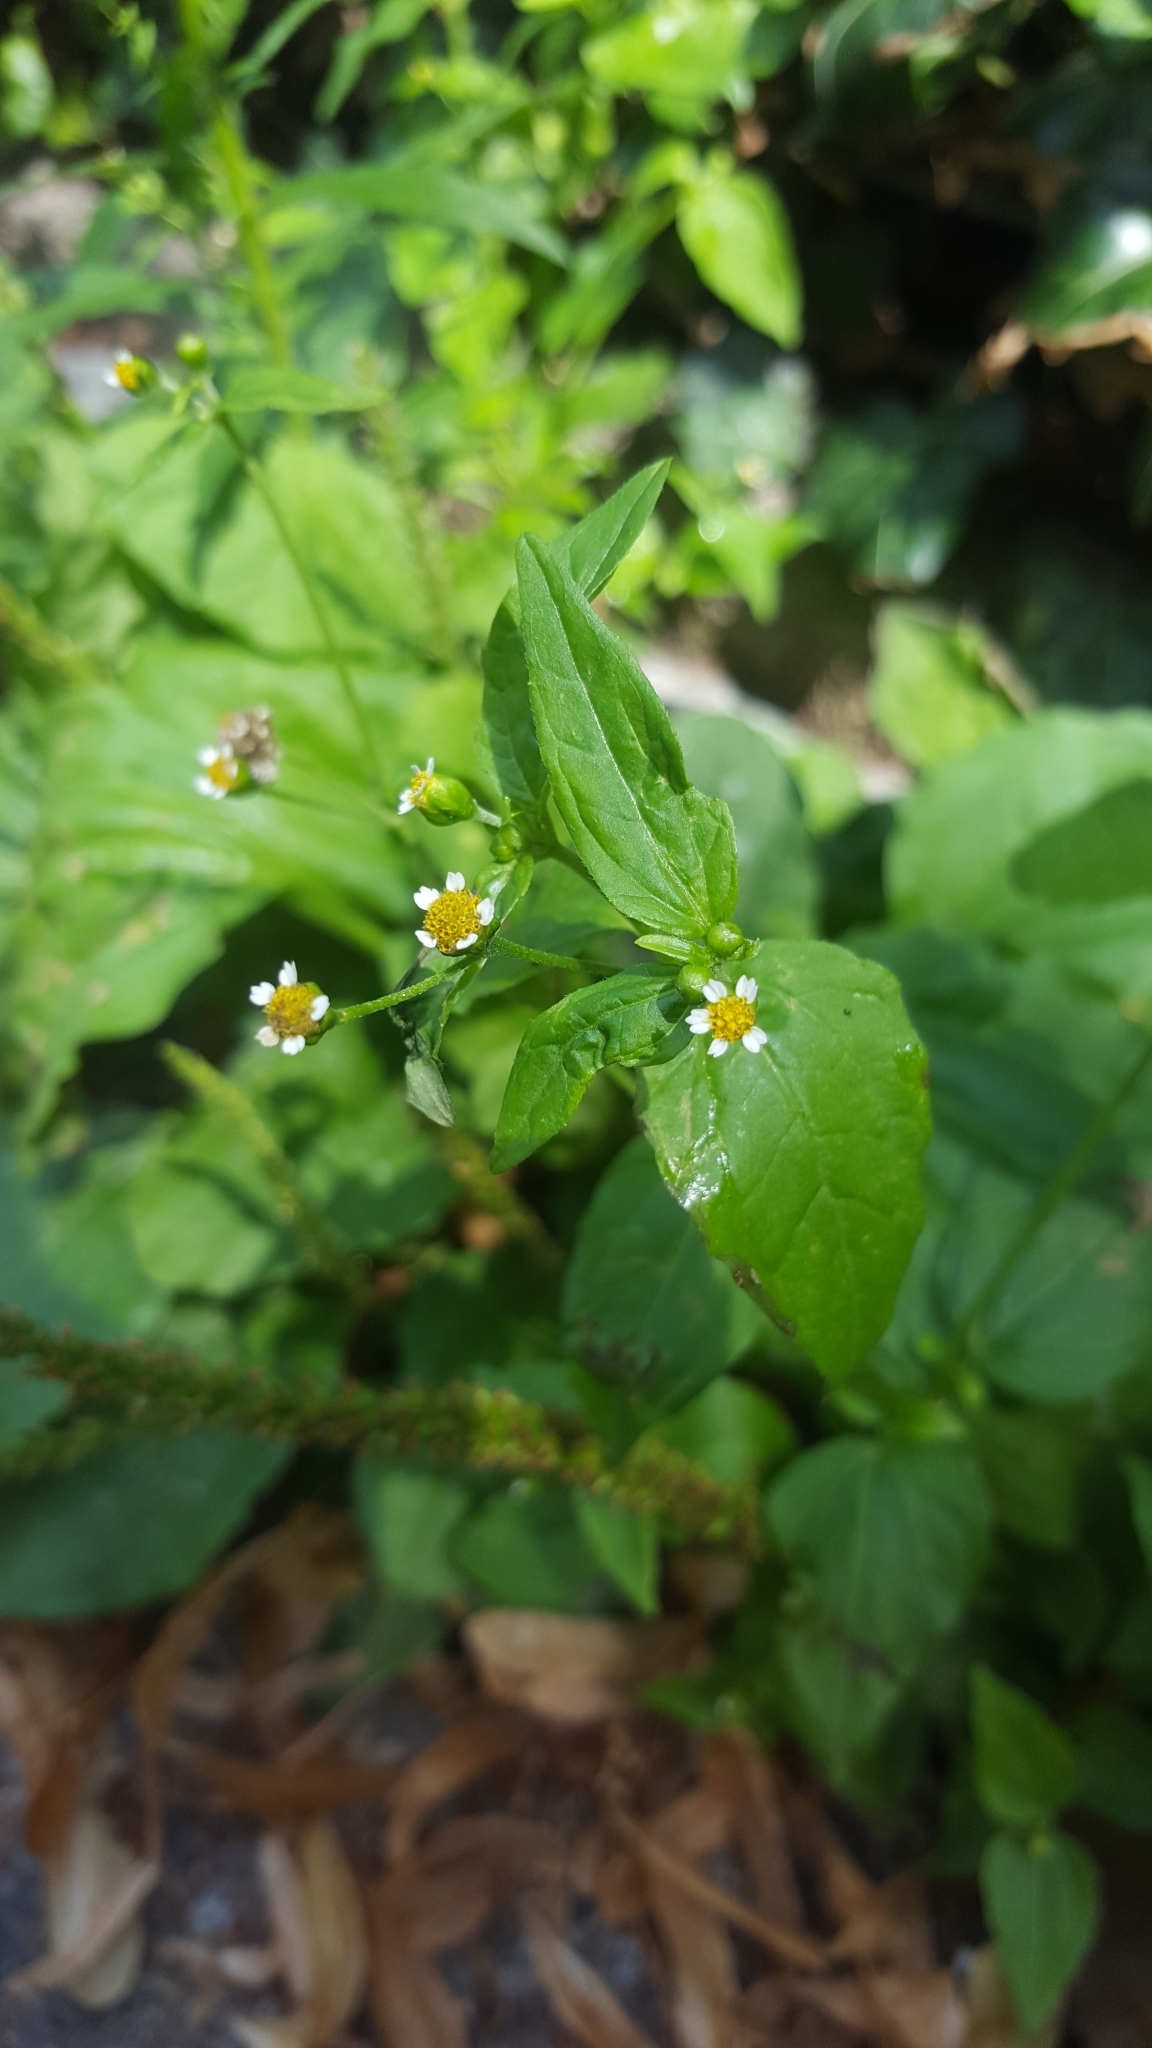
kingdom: Plantae
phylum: Tracheophyta
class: Magnoliopsida
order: Asterales
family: Asteraceae
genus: Galinsoga
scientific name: Galinsoga parviflora
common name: Gallant soldier
